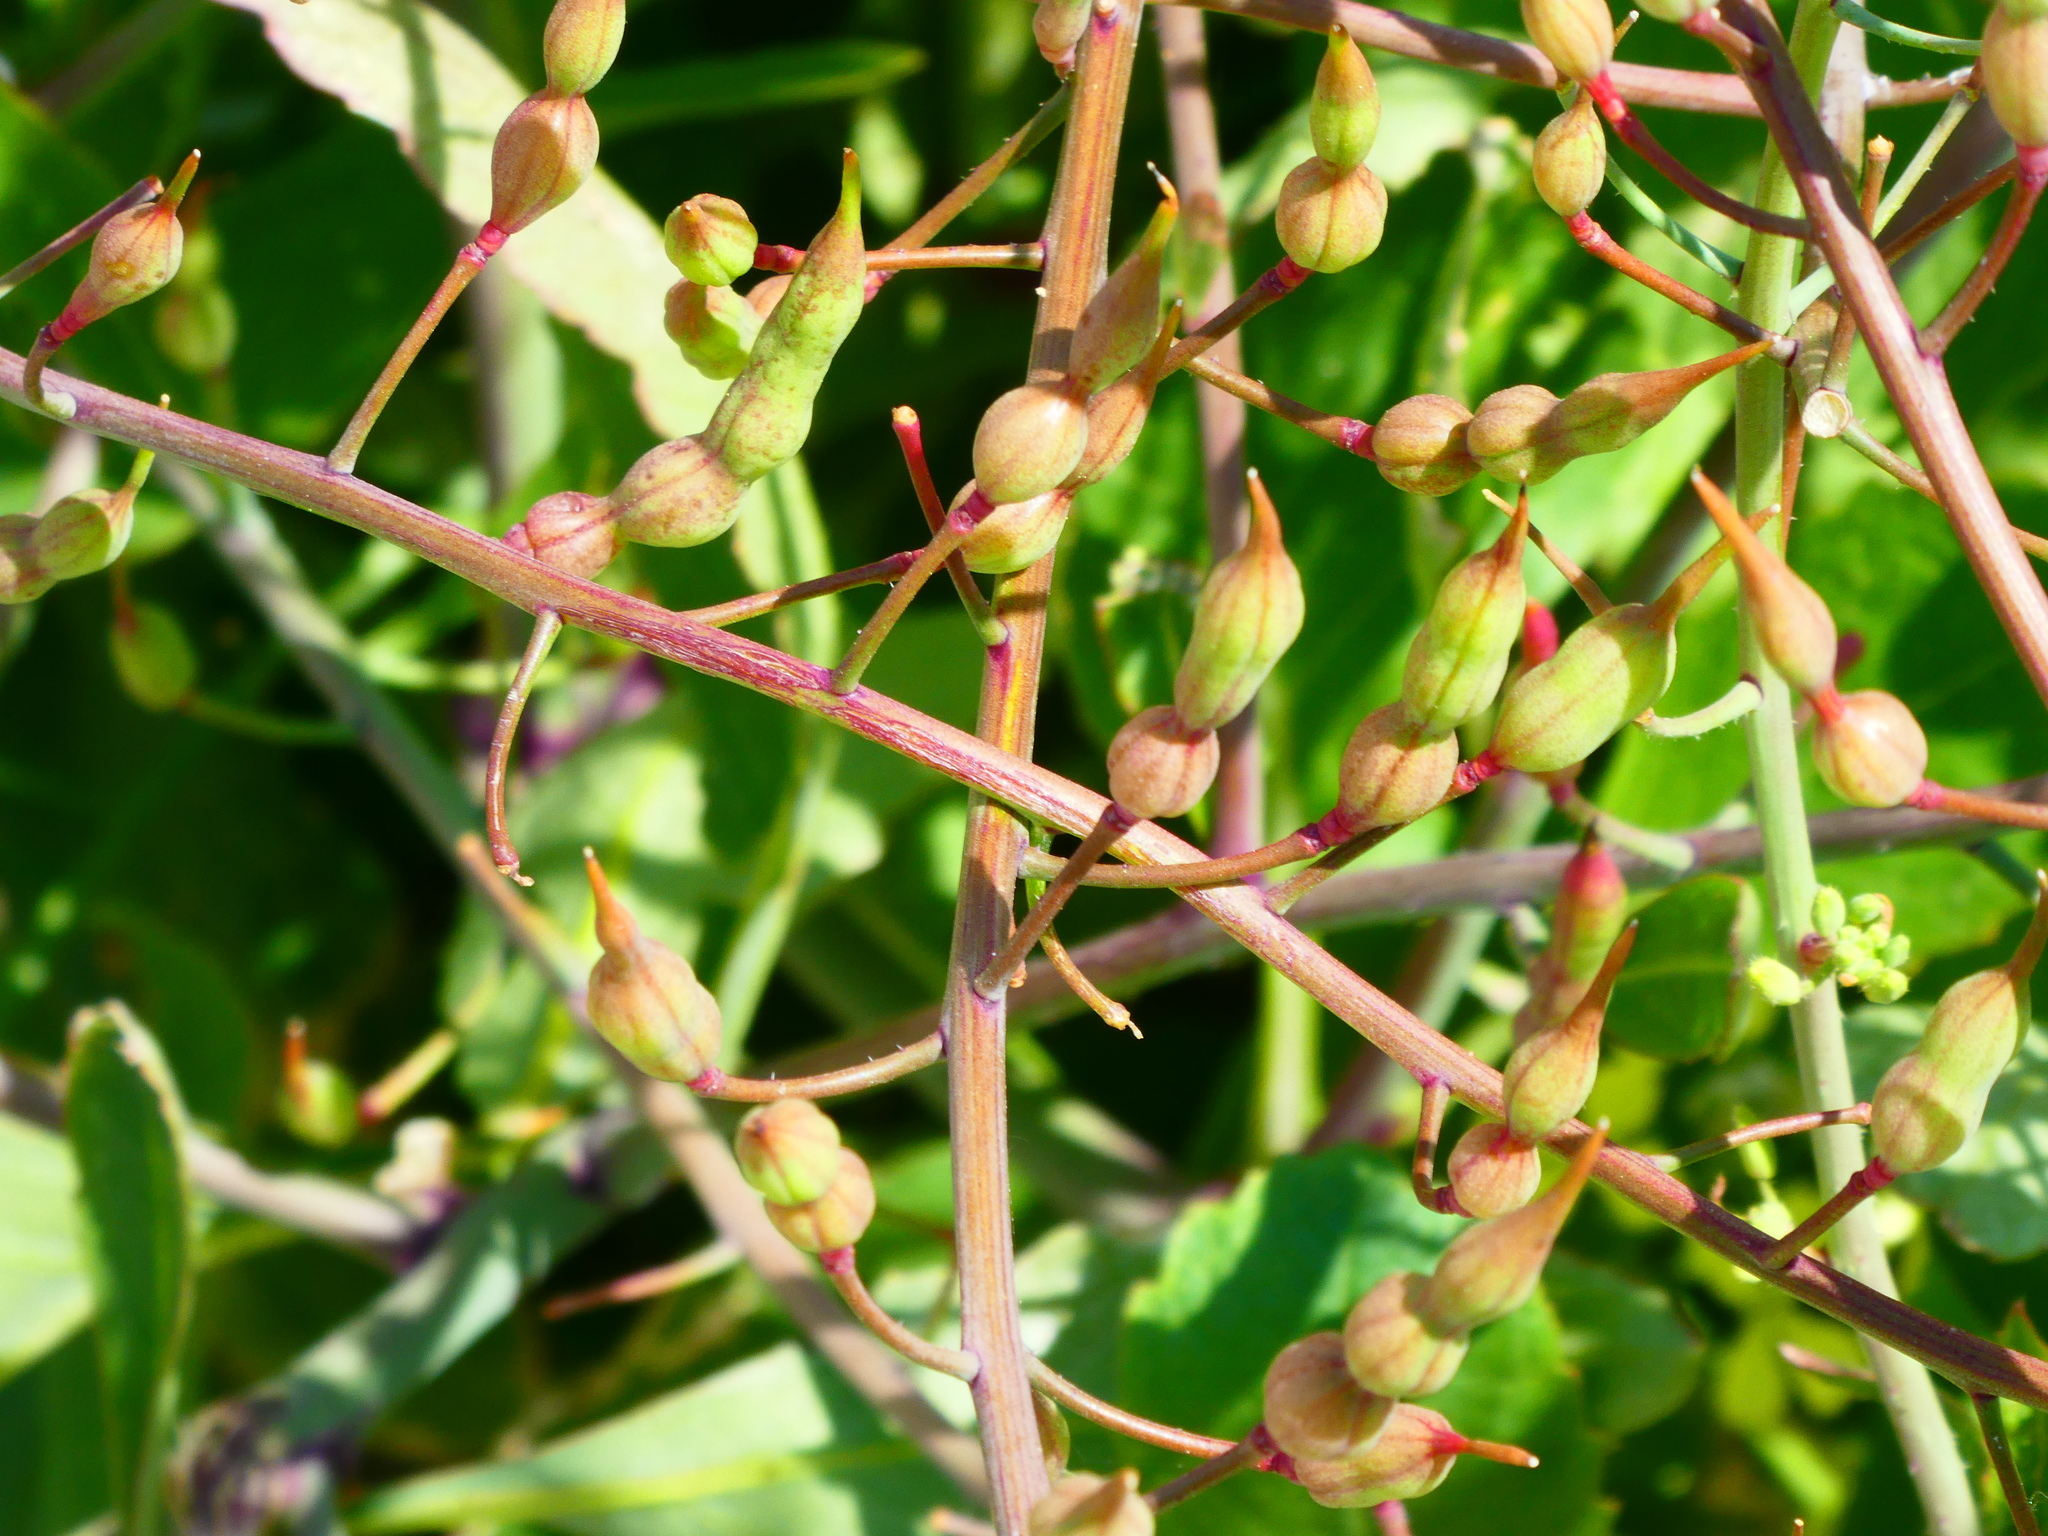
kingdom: Plantae
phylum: Tracheophyta
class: Magnoliopsida
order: Brassicales
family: Brassicaceae
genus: Raphanus
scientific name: Raphanus sativus
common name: Cultivated radish
